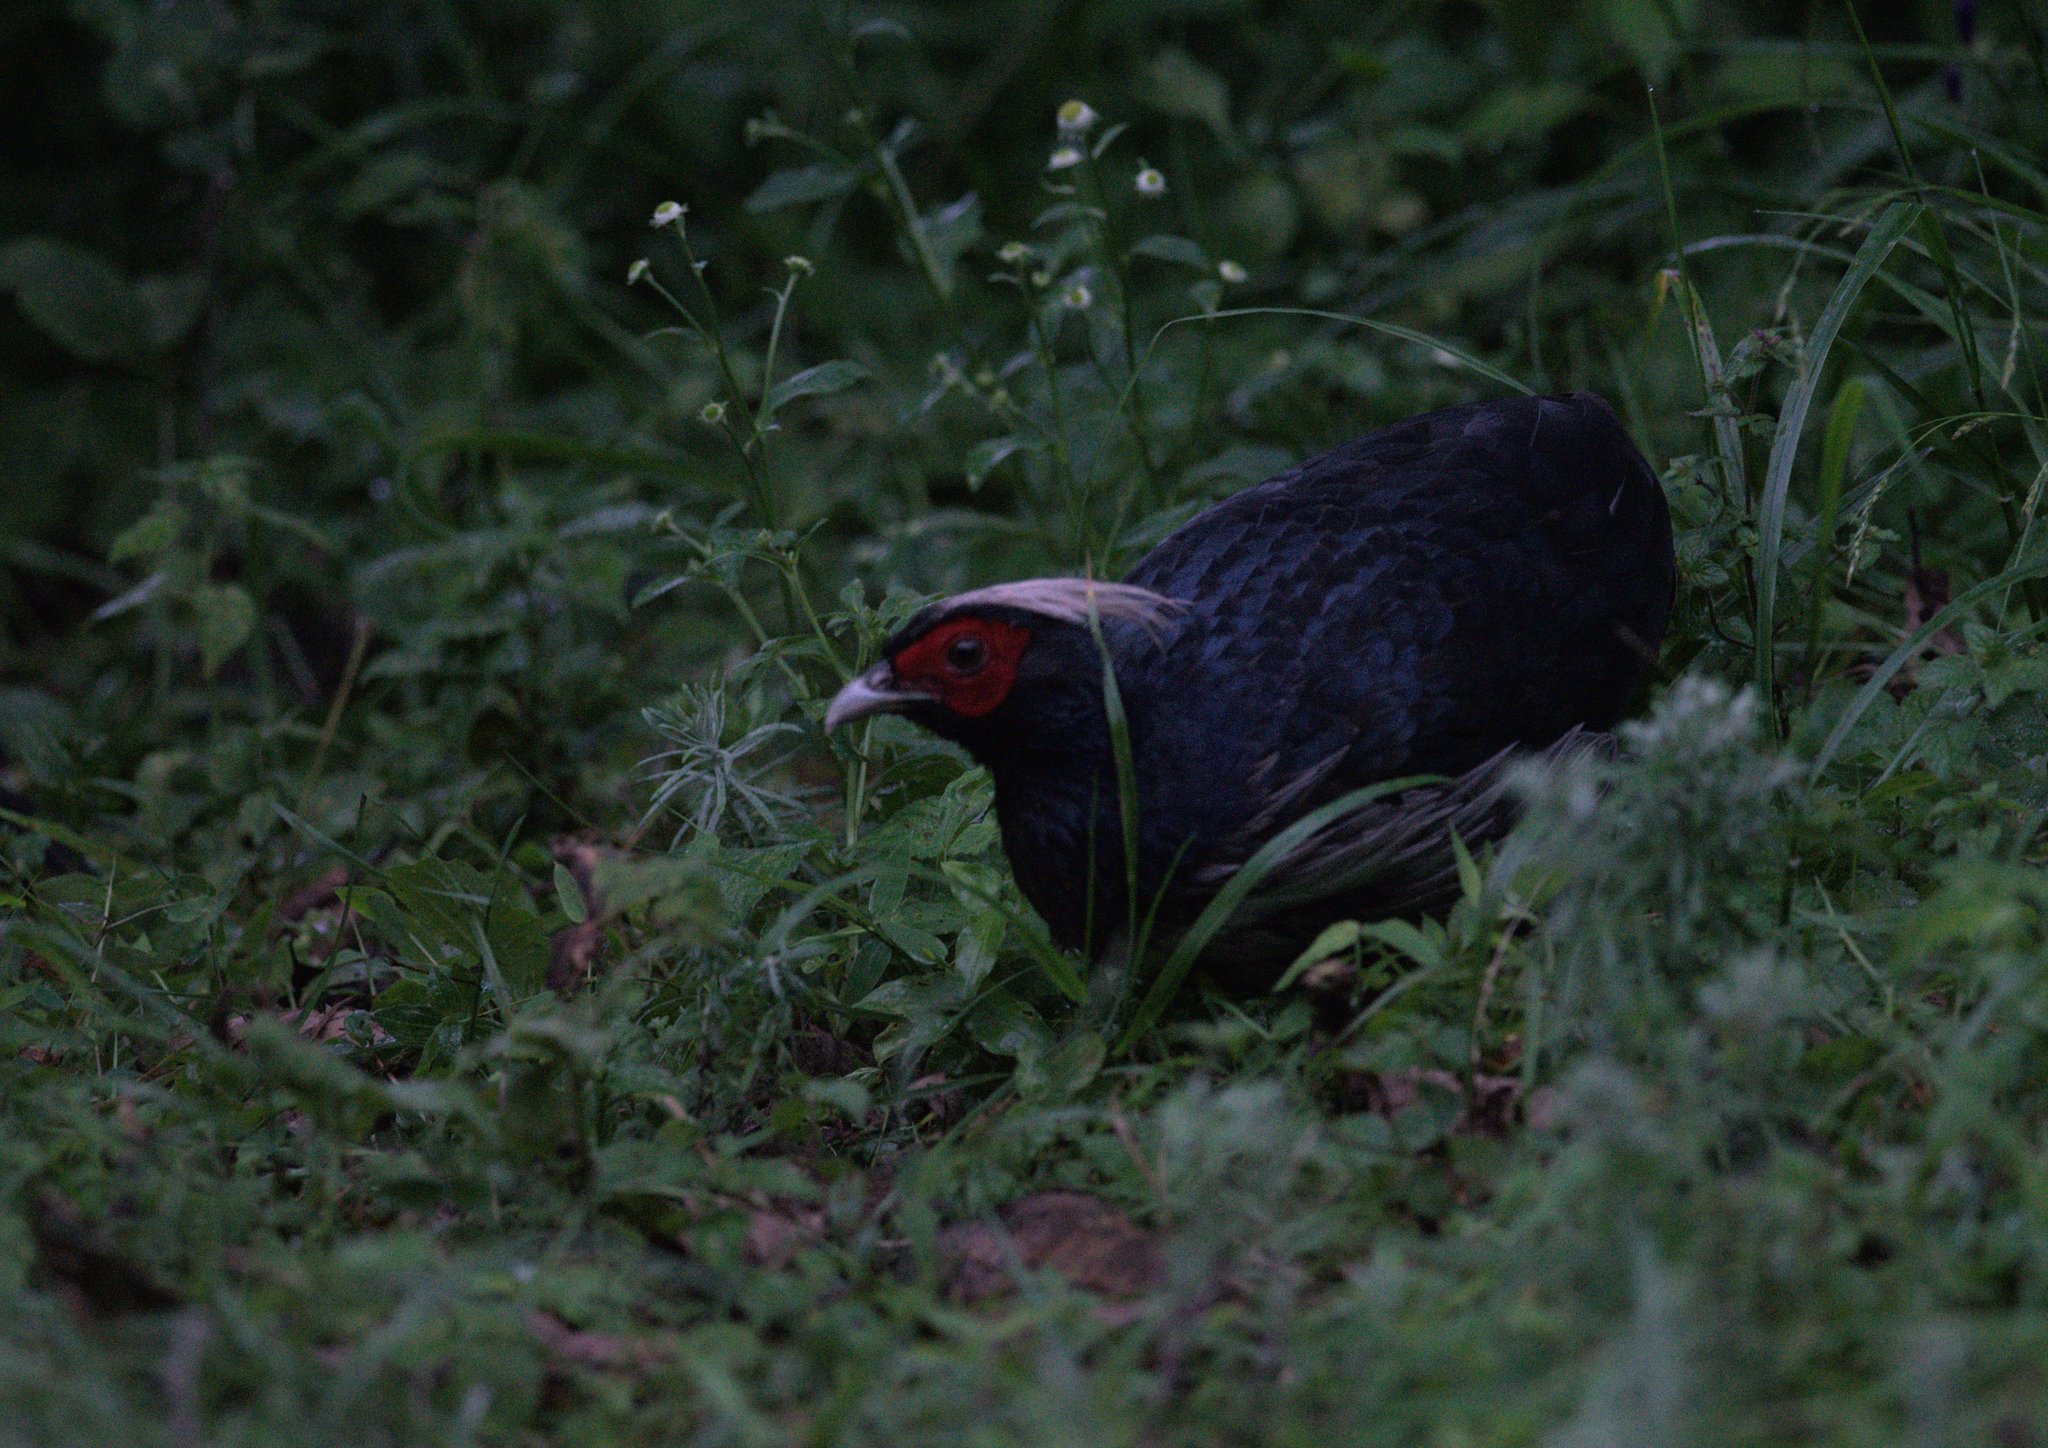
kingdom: Animalia
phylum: Chordata
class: Aves
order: Galliformes
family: Phasianidae
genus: Lophura
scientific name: Lophura leucomelanos
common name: Kalij pheasant
